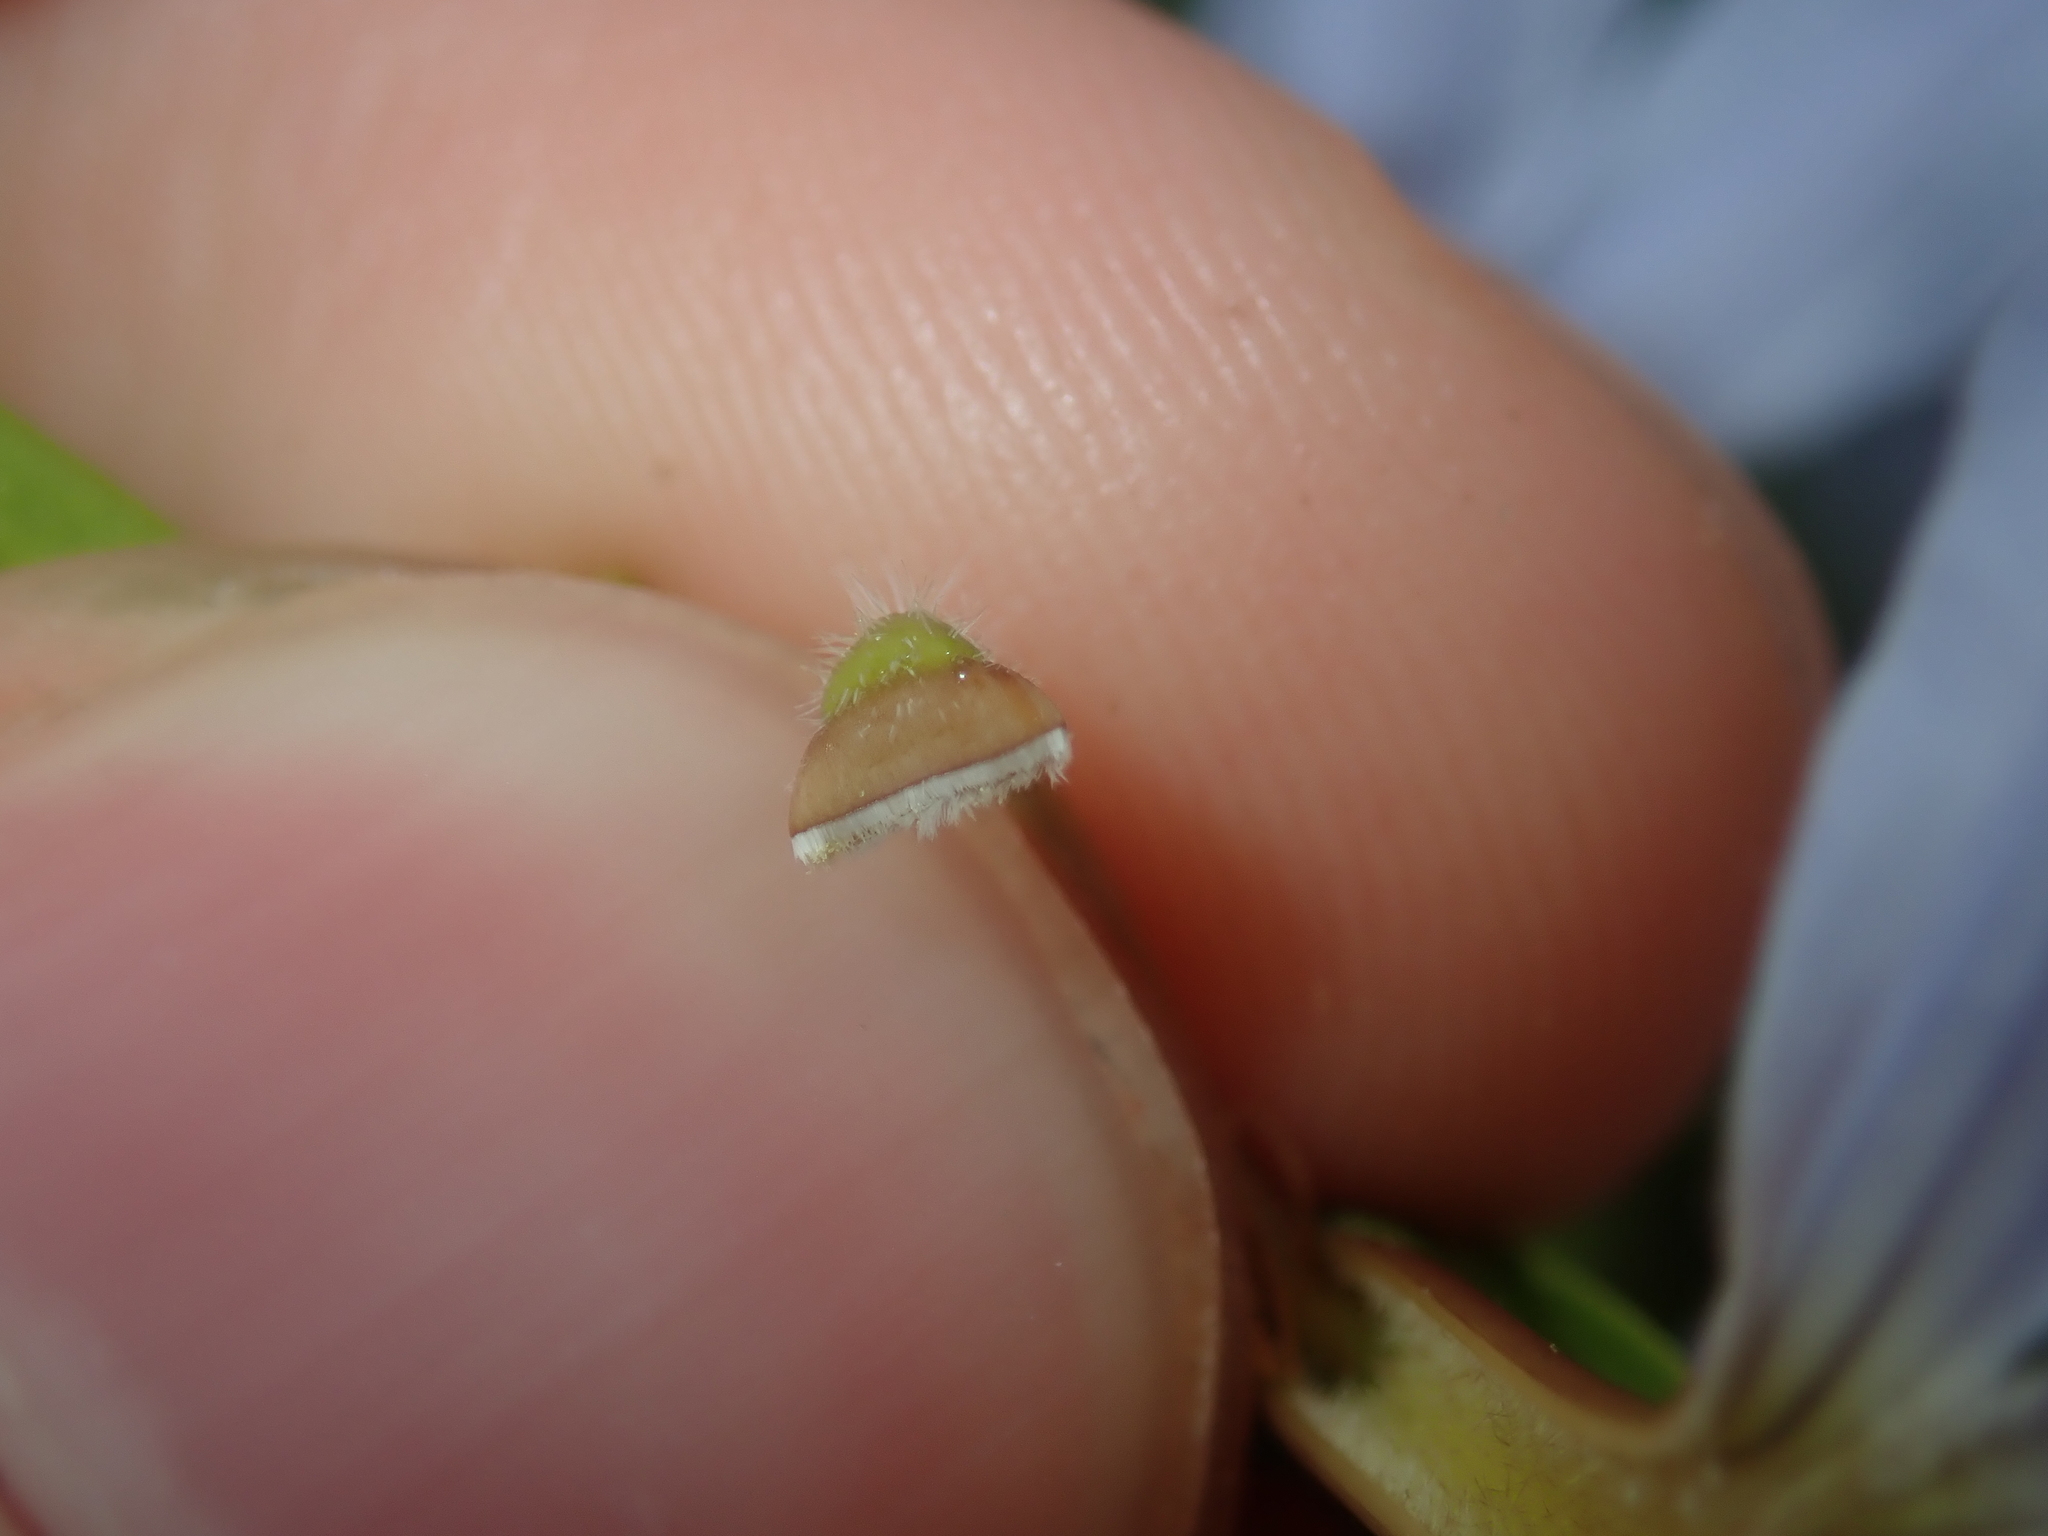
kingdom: Plantae
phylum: Tracheophyta
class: Magnoliopsida
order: Asterales
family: Goodeniaceae
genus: Scaevola
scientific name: Scaevola porocarya
